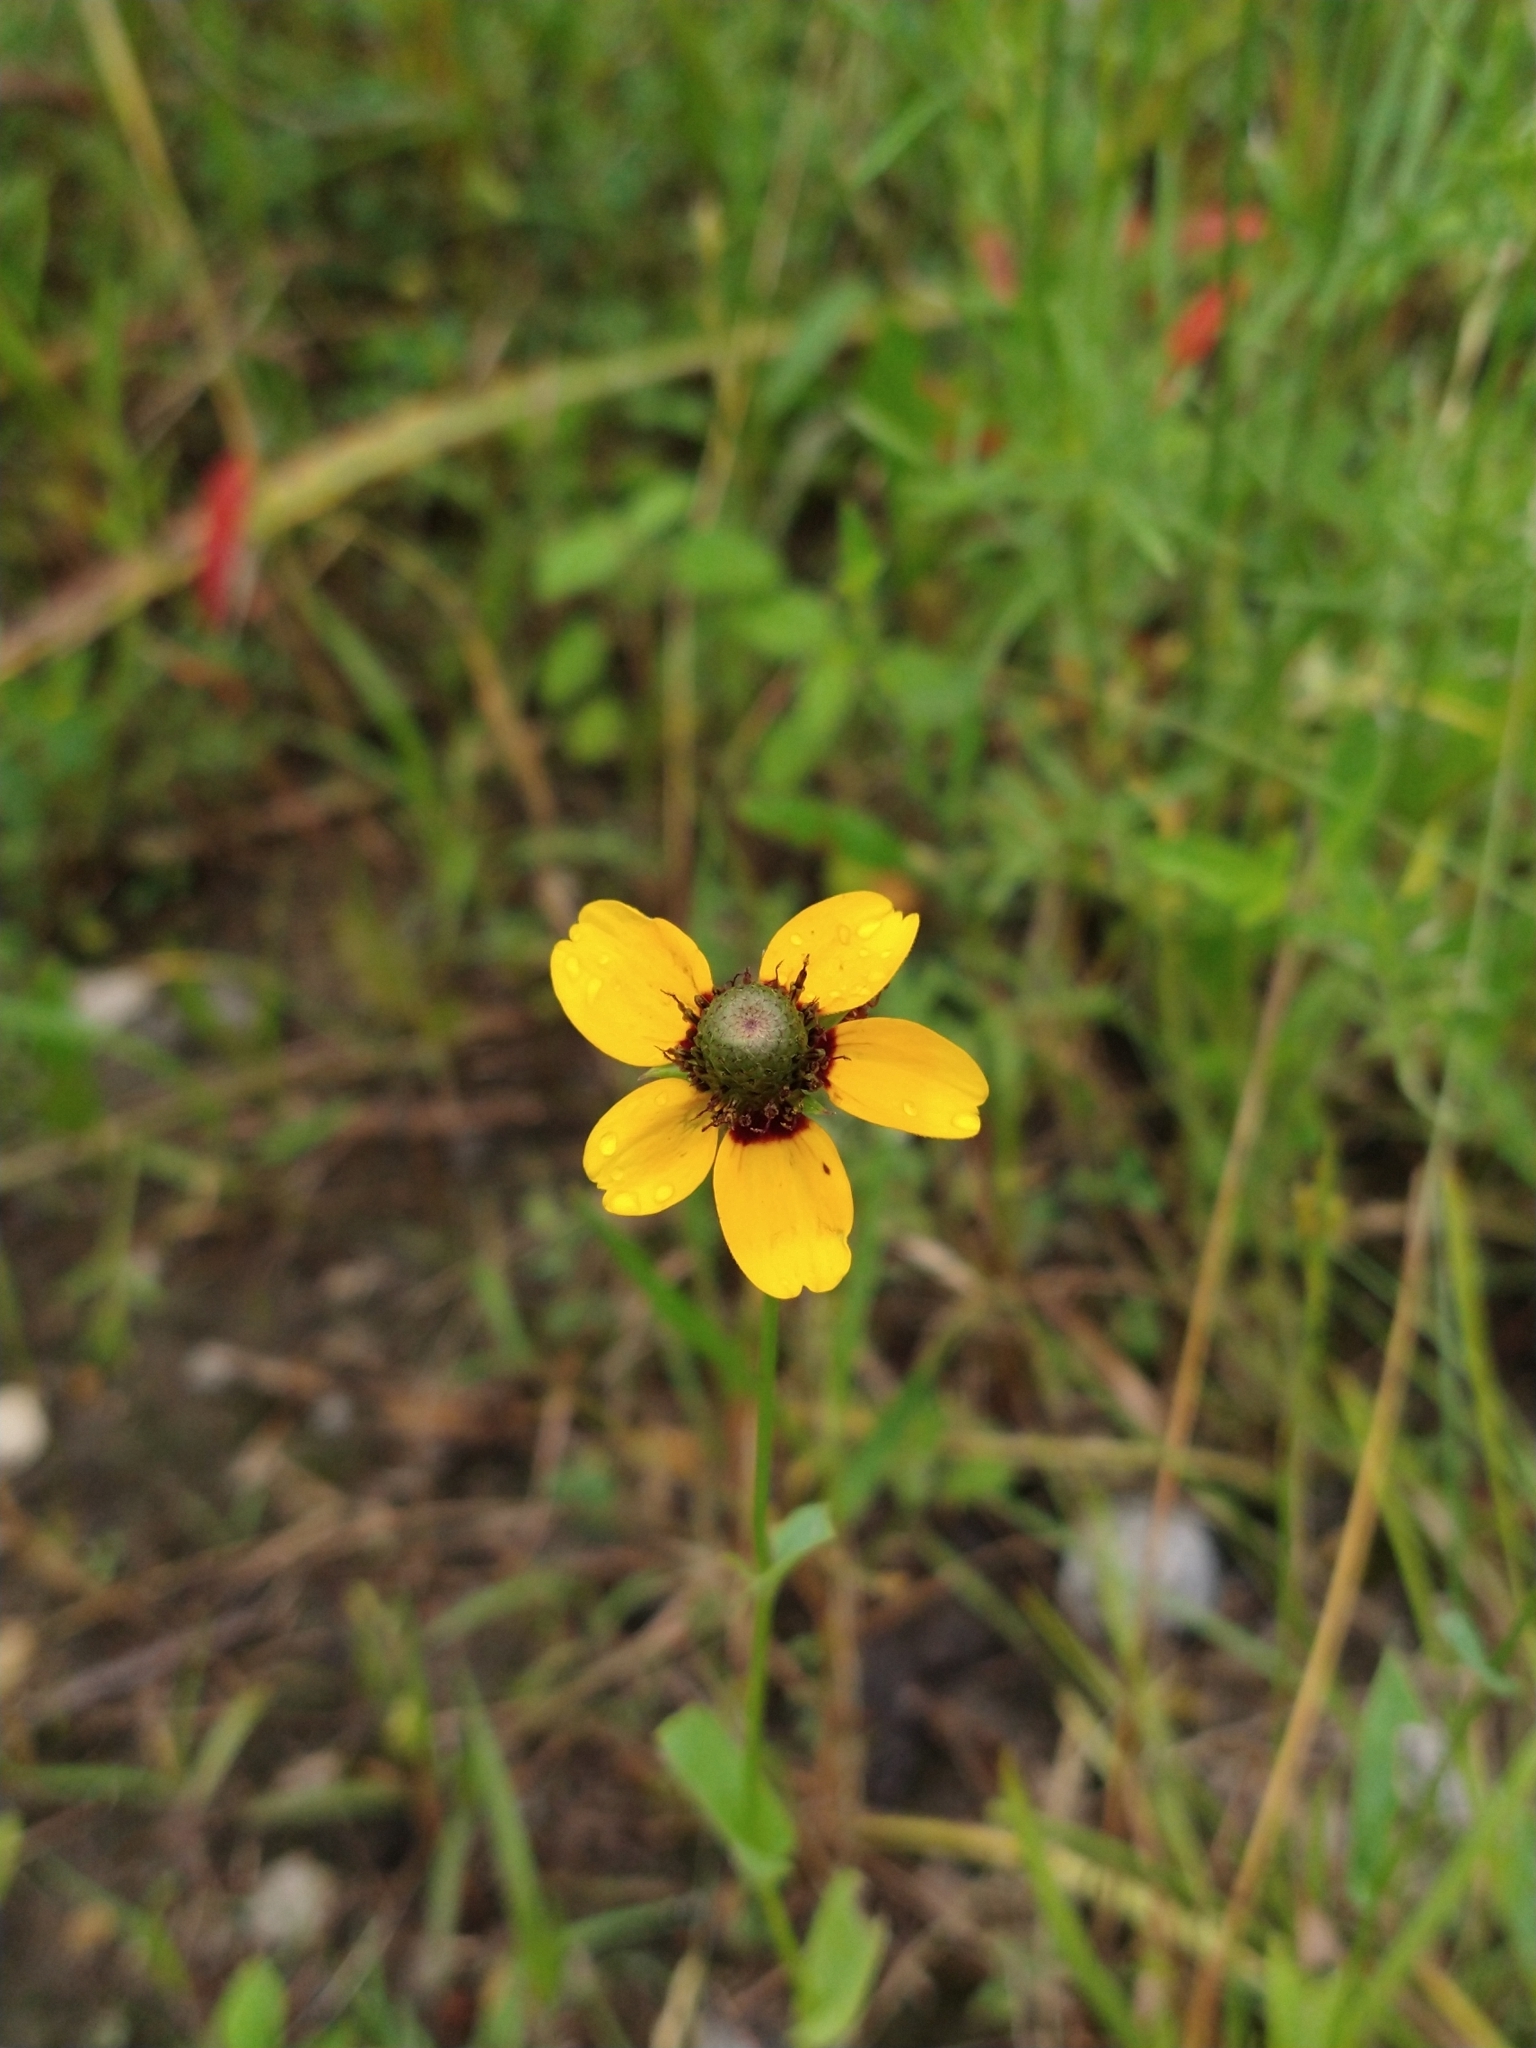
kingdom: Plantae
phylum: Tracheophyta
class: Magnoliopsida
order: Asterales
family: Asteraceae
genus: Rudbeckia
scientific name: Rudbeckia amplexicaulis
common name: Clasping-leaf coneflower
